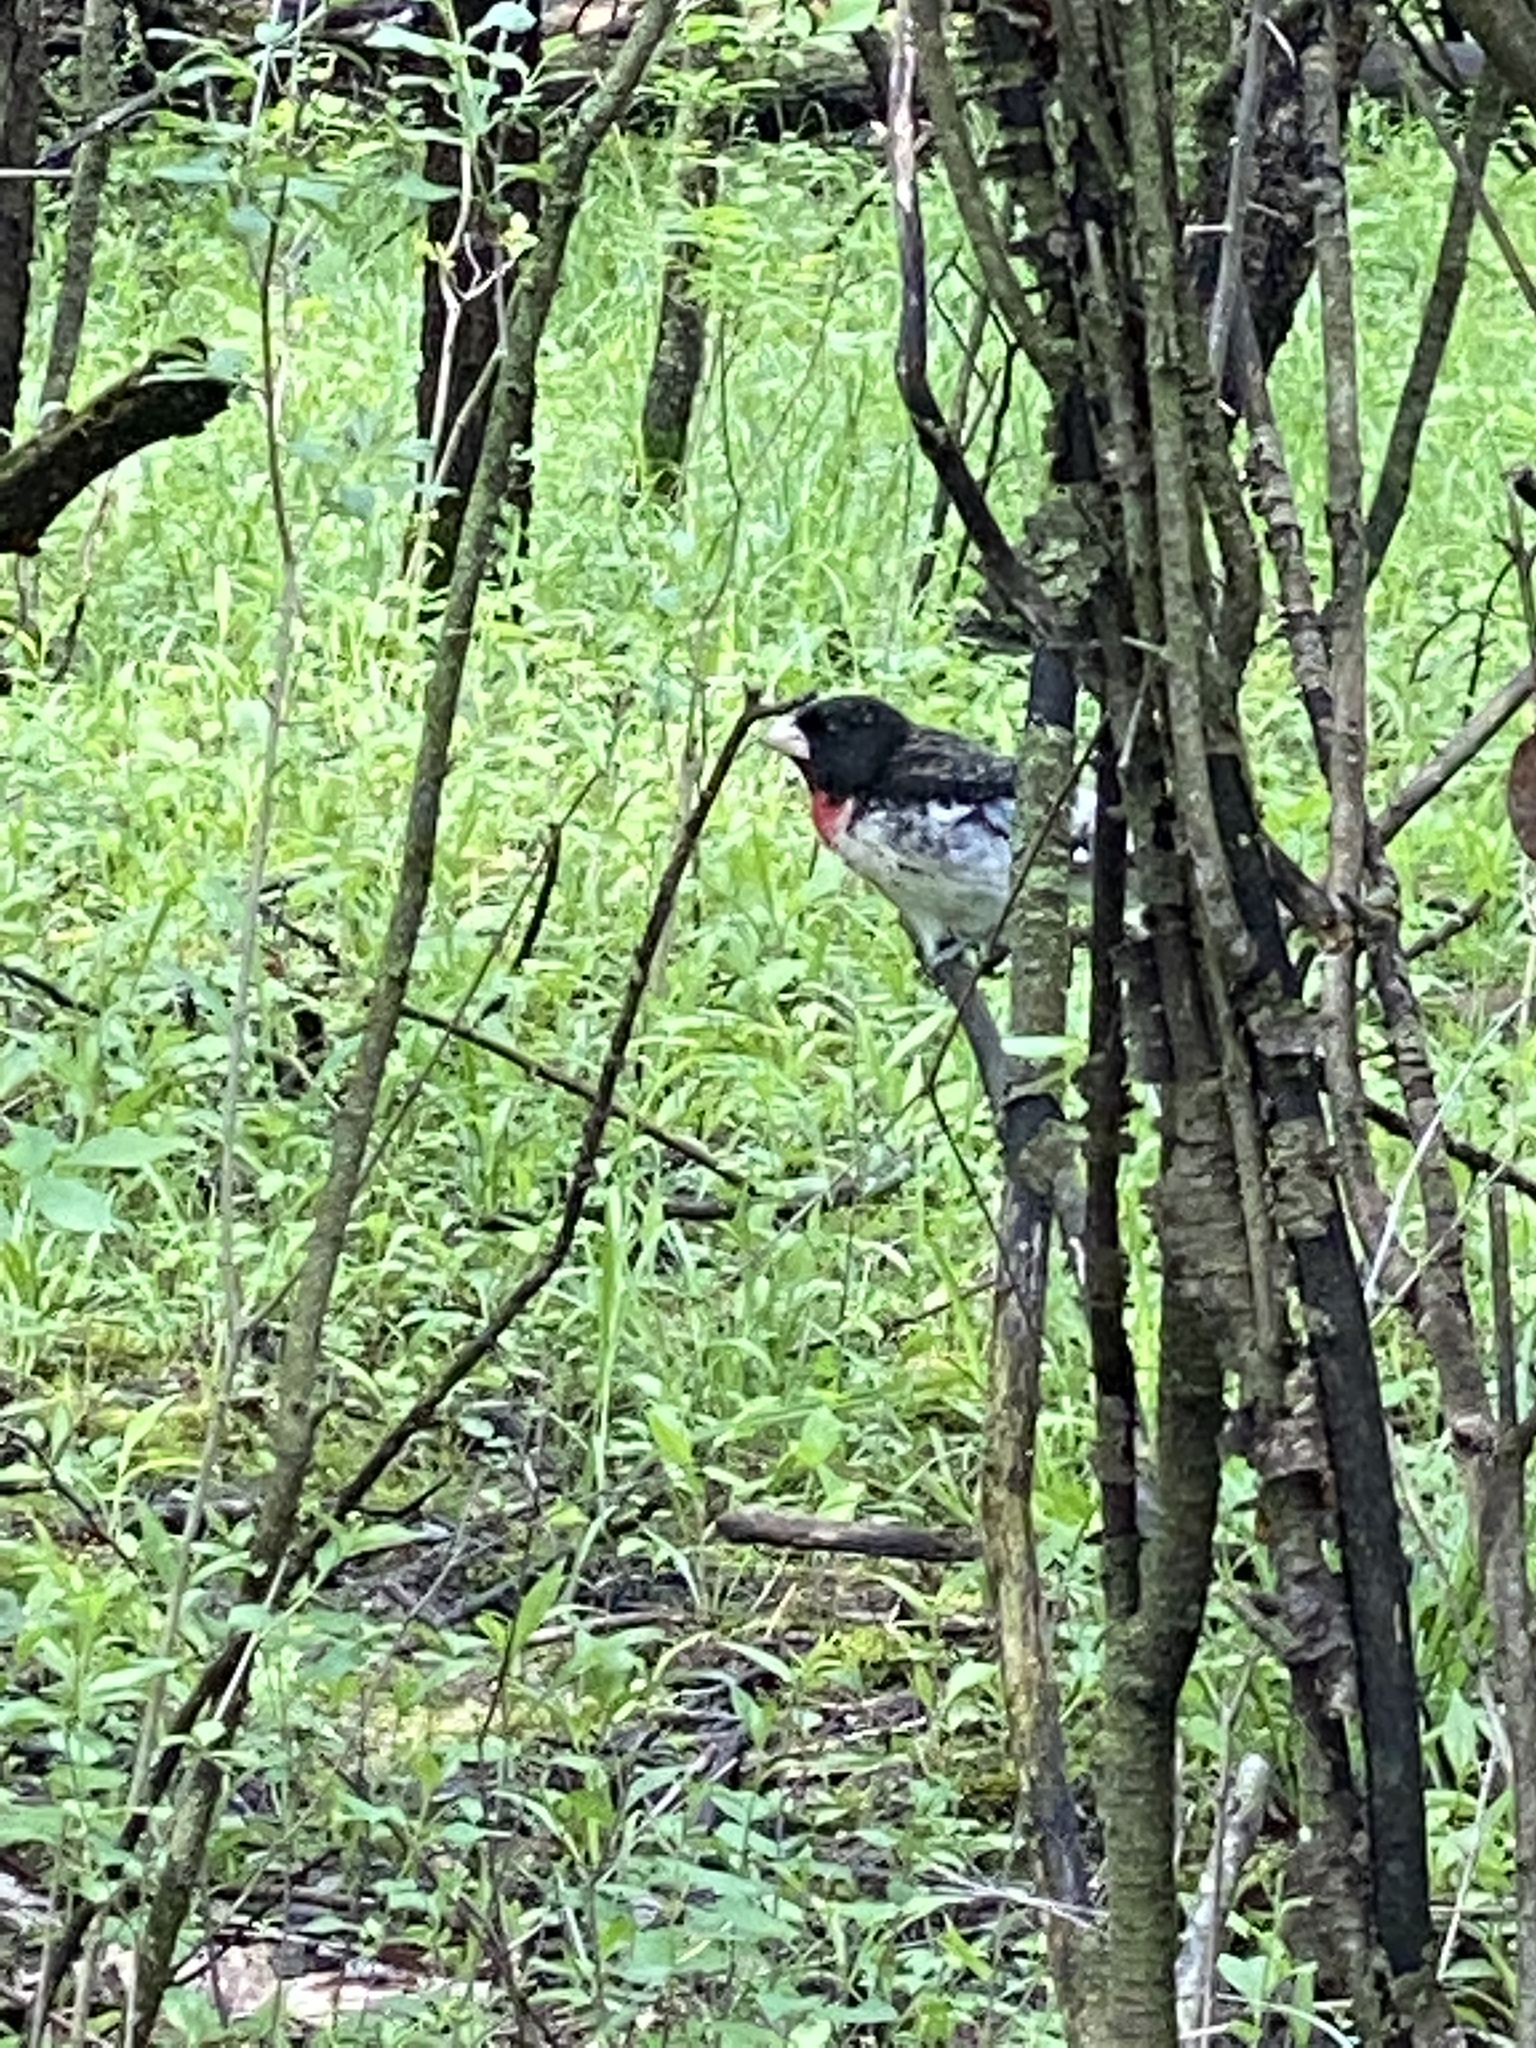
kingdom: Animalia
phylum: Chordata
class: Aves
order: Passeriformes
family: Cardinalidae
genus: Pheucticus
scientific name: Pheucticus ludovicianus
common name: Rose-breasted grosbeak
